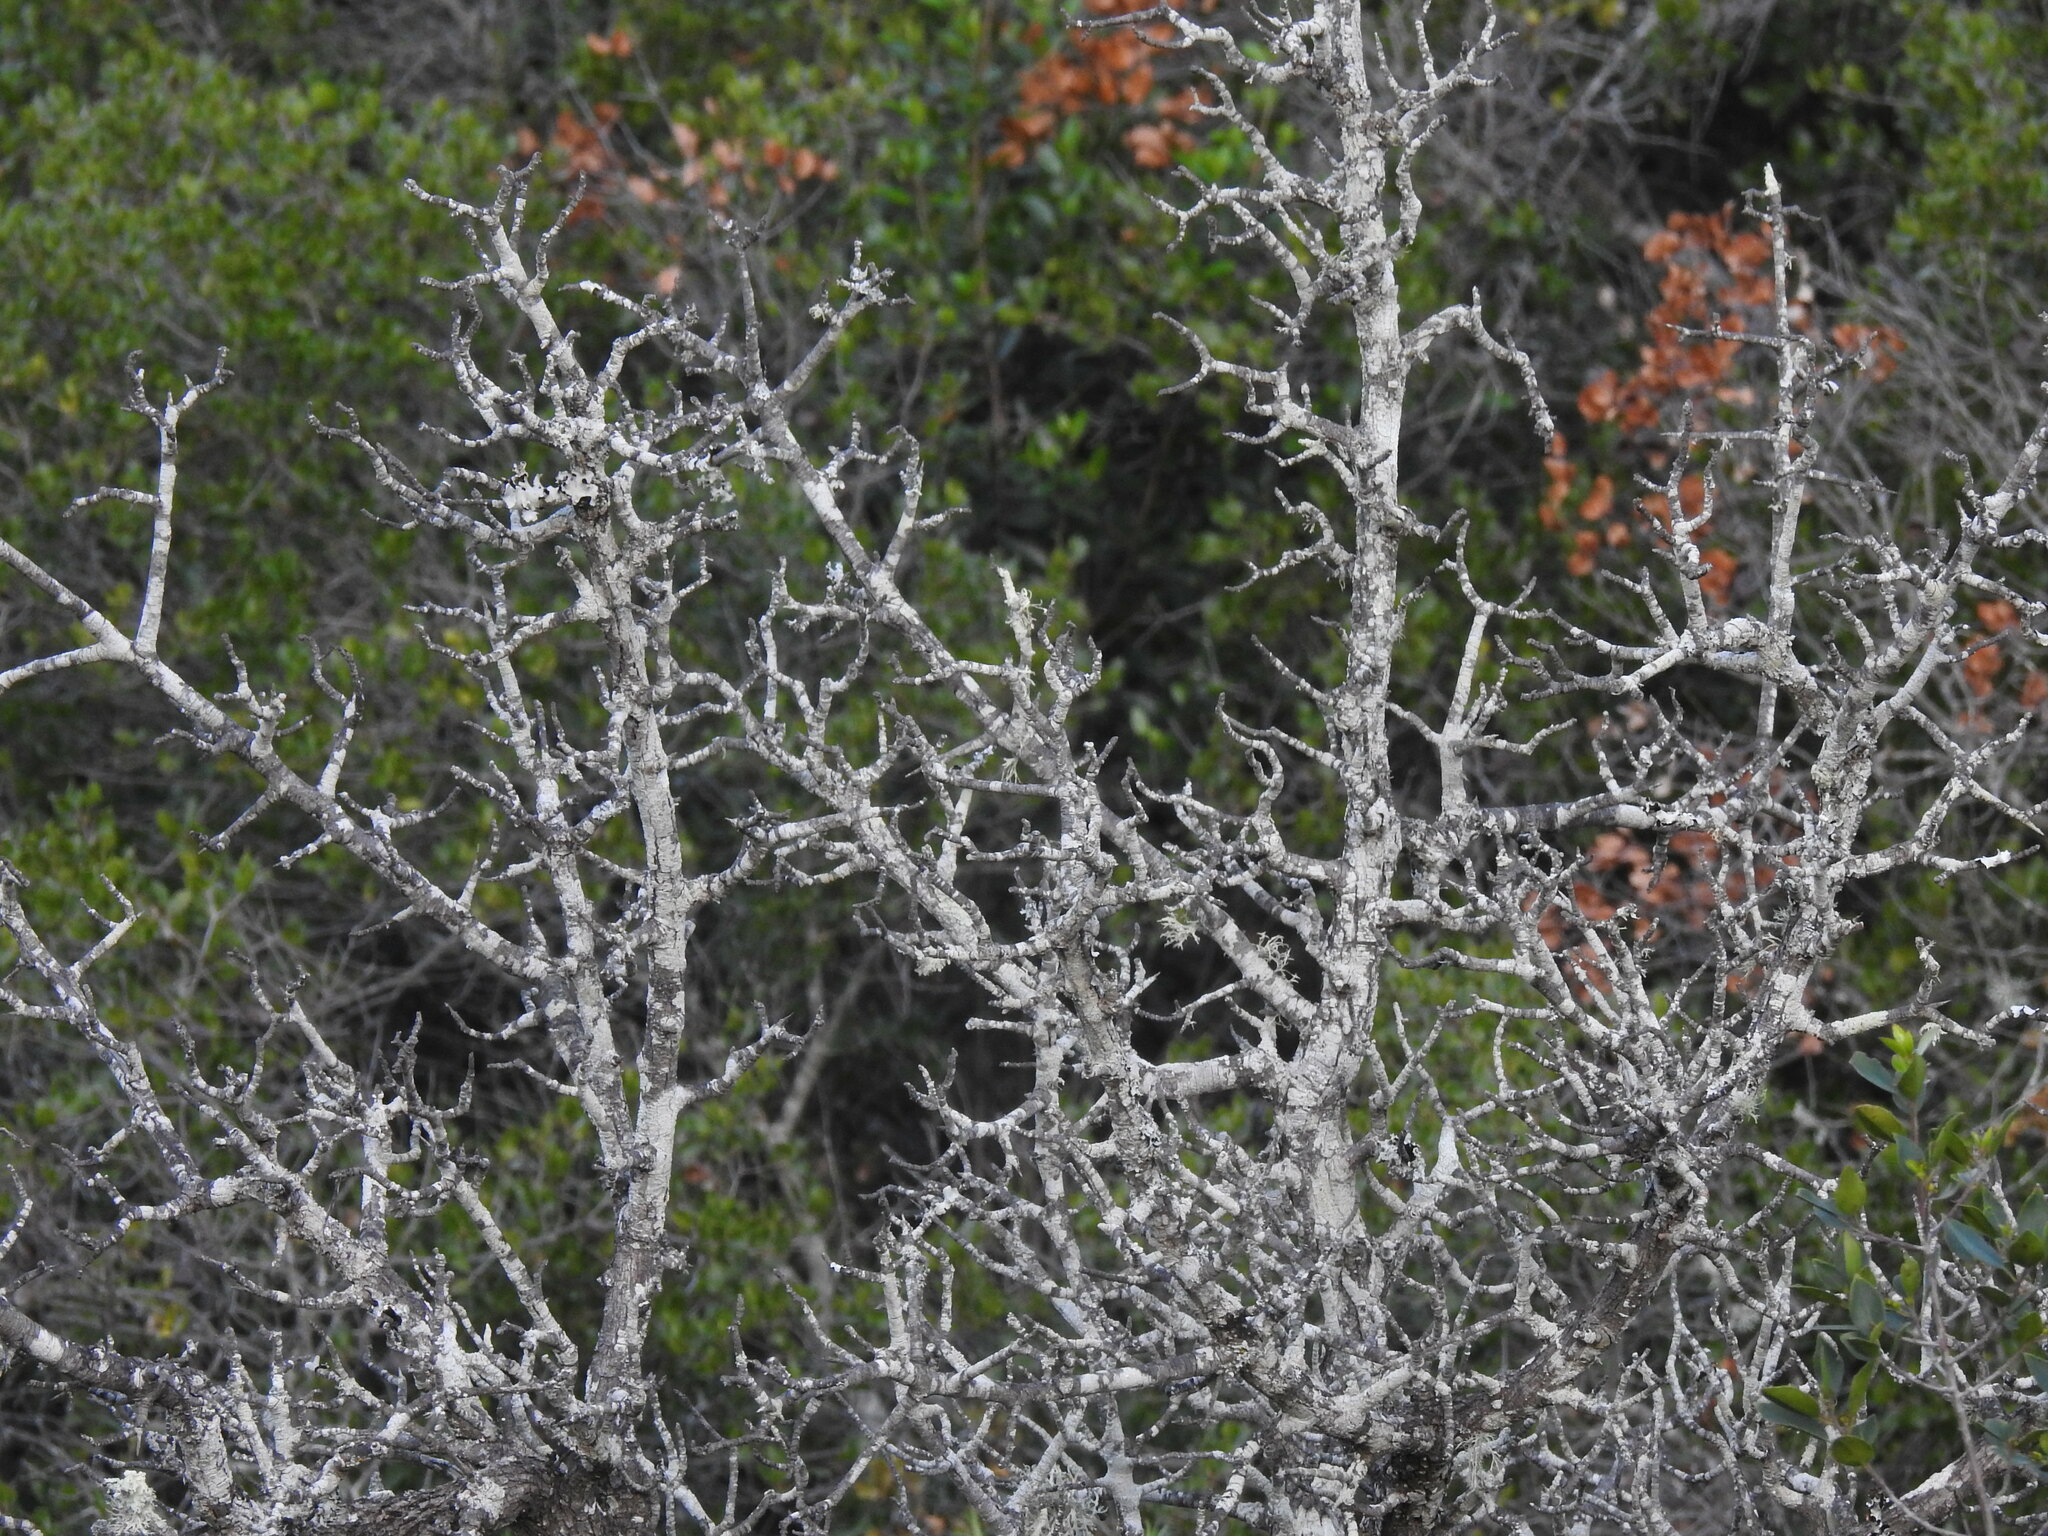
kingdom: Plantae
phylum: Tracheophyta
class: Magnoliopsida
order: Rosales
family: Rosaceae
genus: Pyrus
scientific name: Pyrus bourgaeana
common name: Iberian pear
